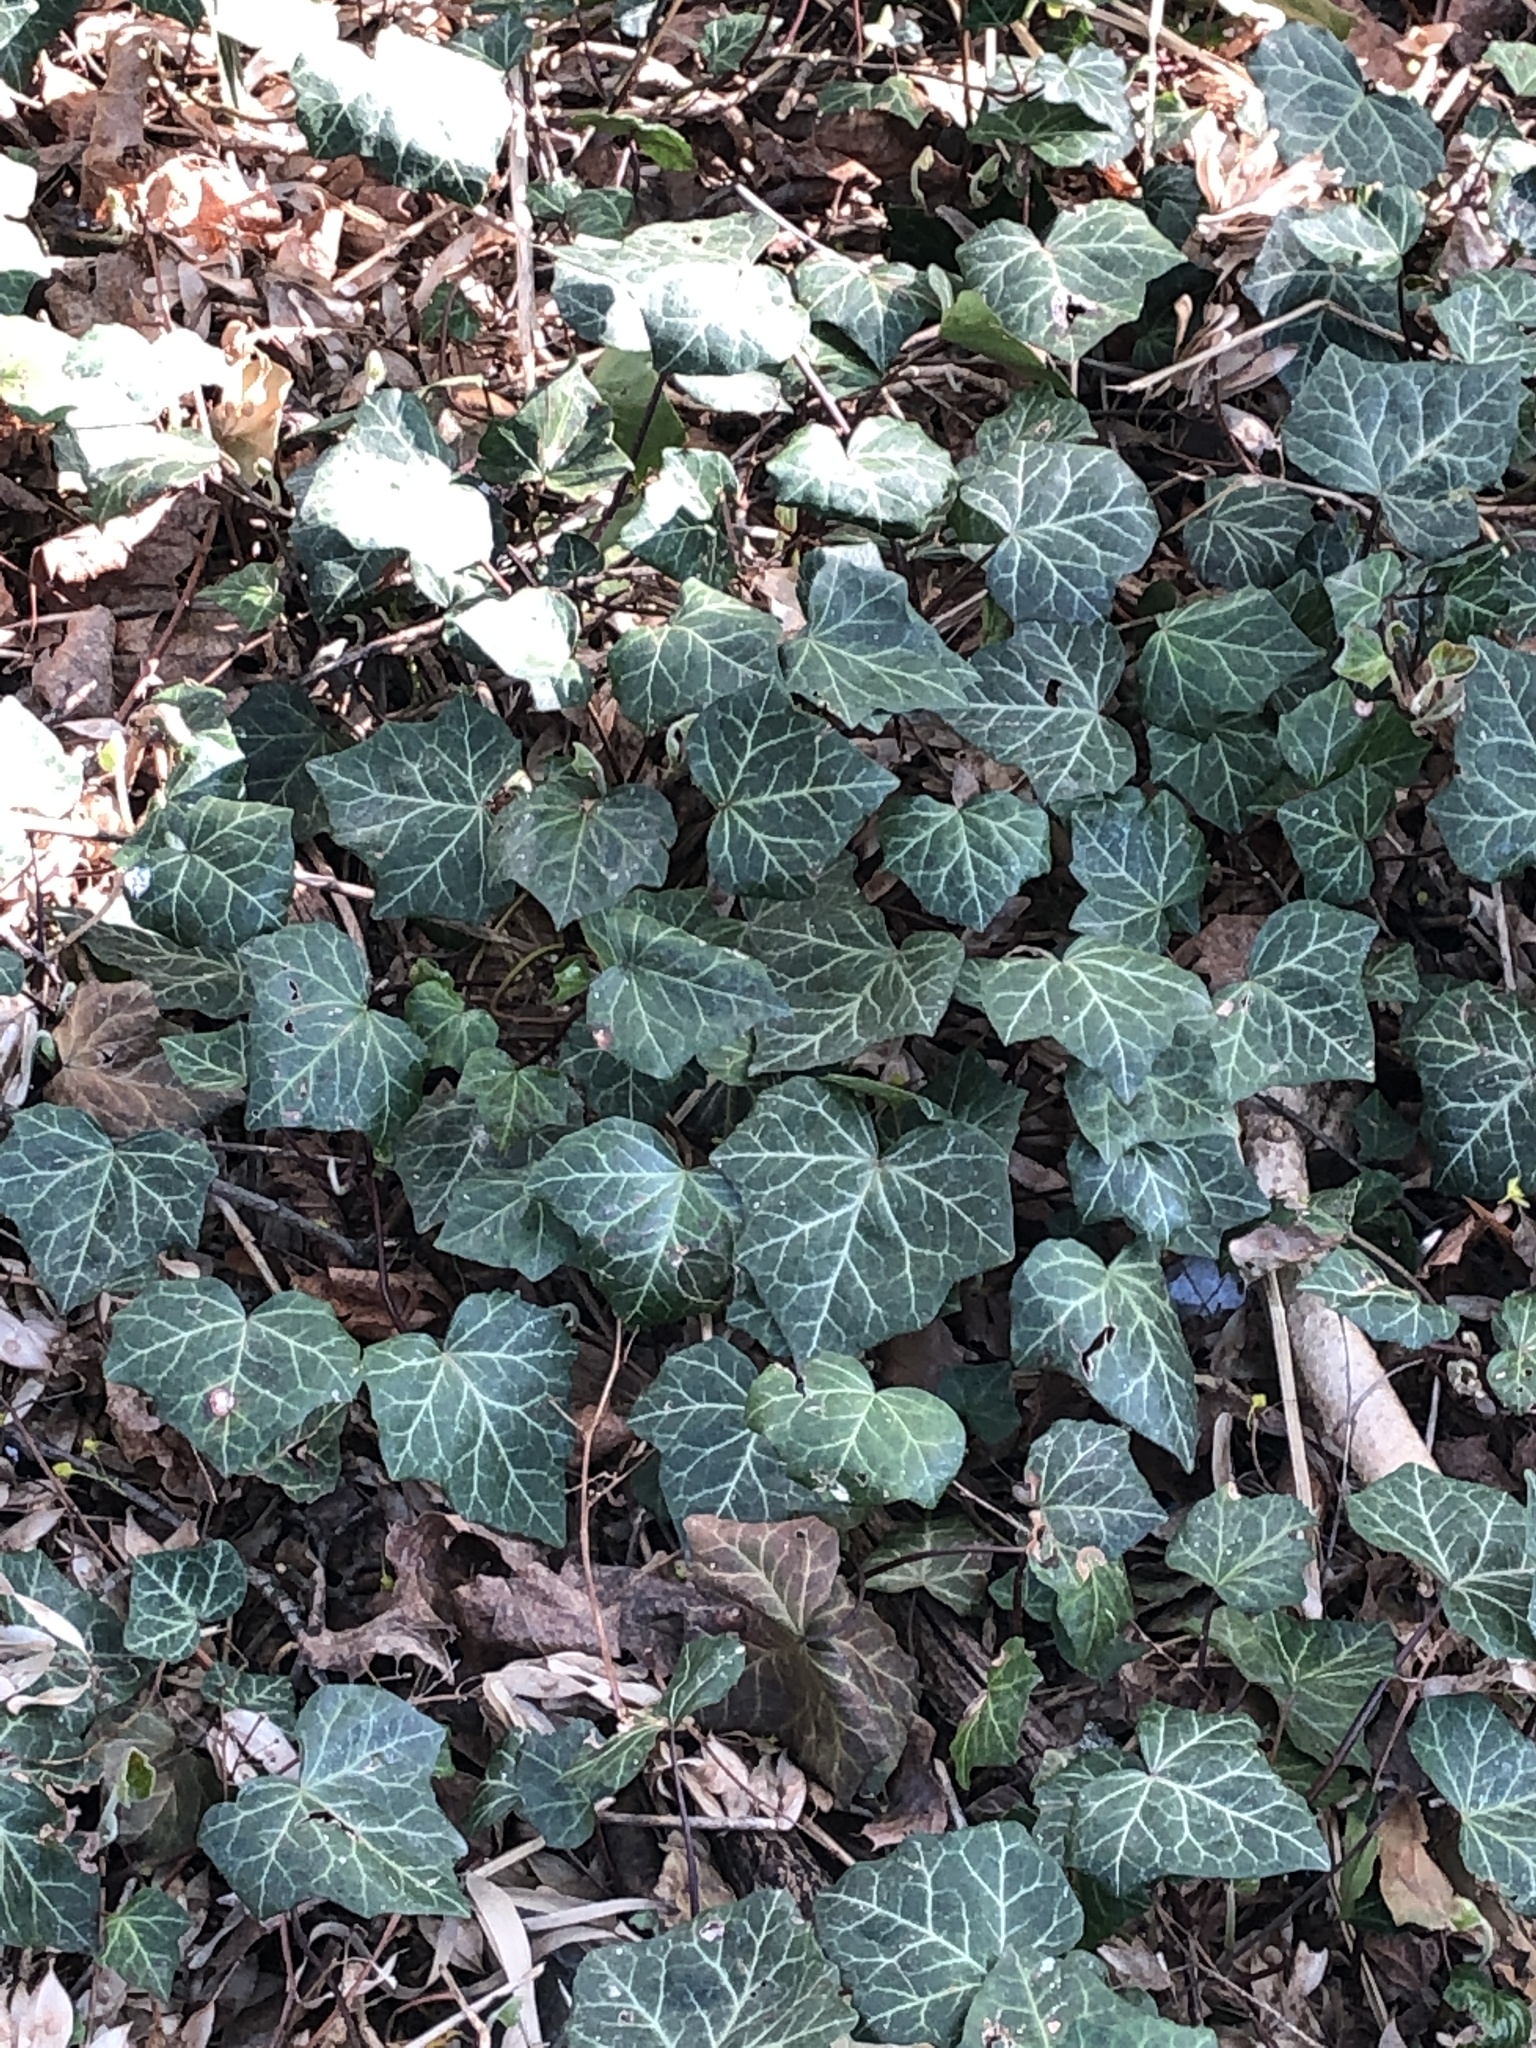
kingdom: Plantae
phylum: Tracheophyta
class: Magnoliopsida
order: Apiales
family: Araliaceae
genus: Hedera
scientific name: Hedera helix
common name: Ivy
